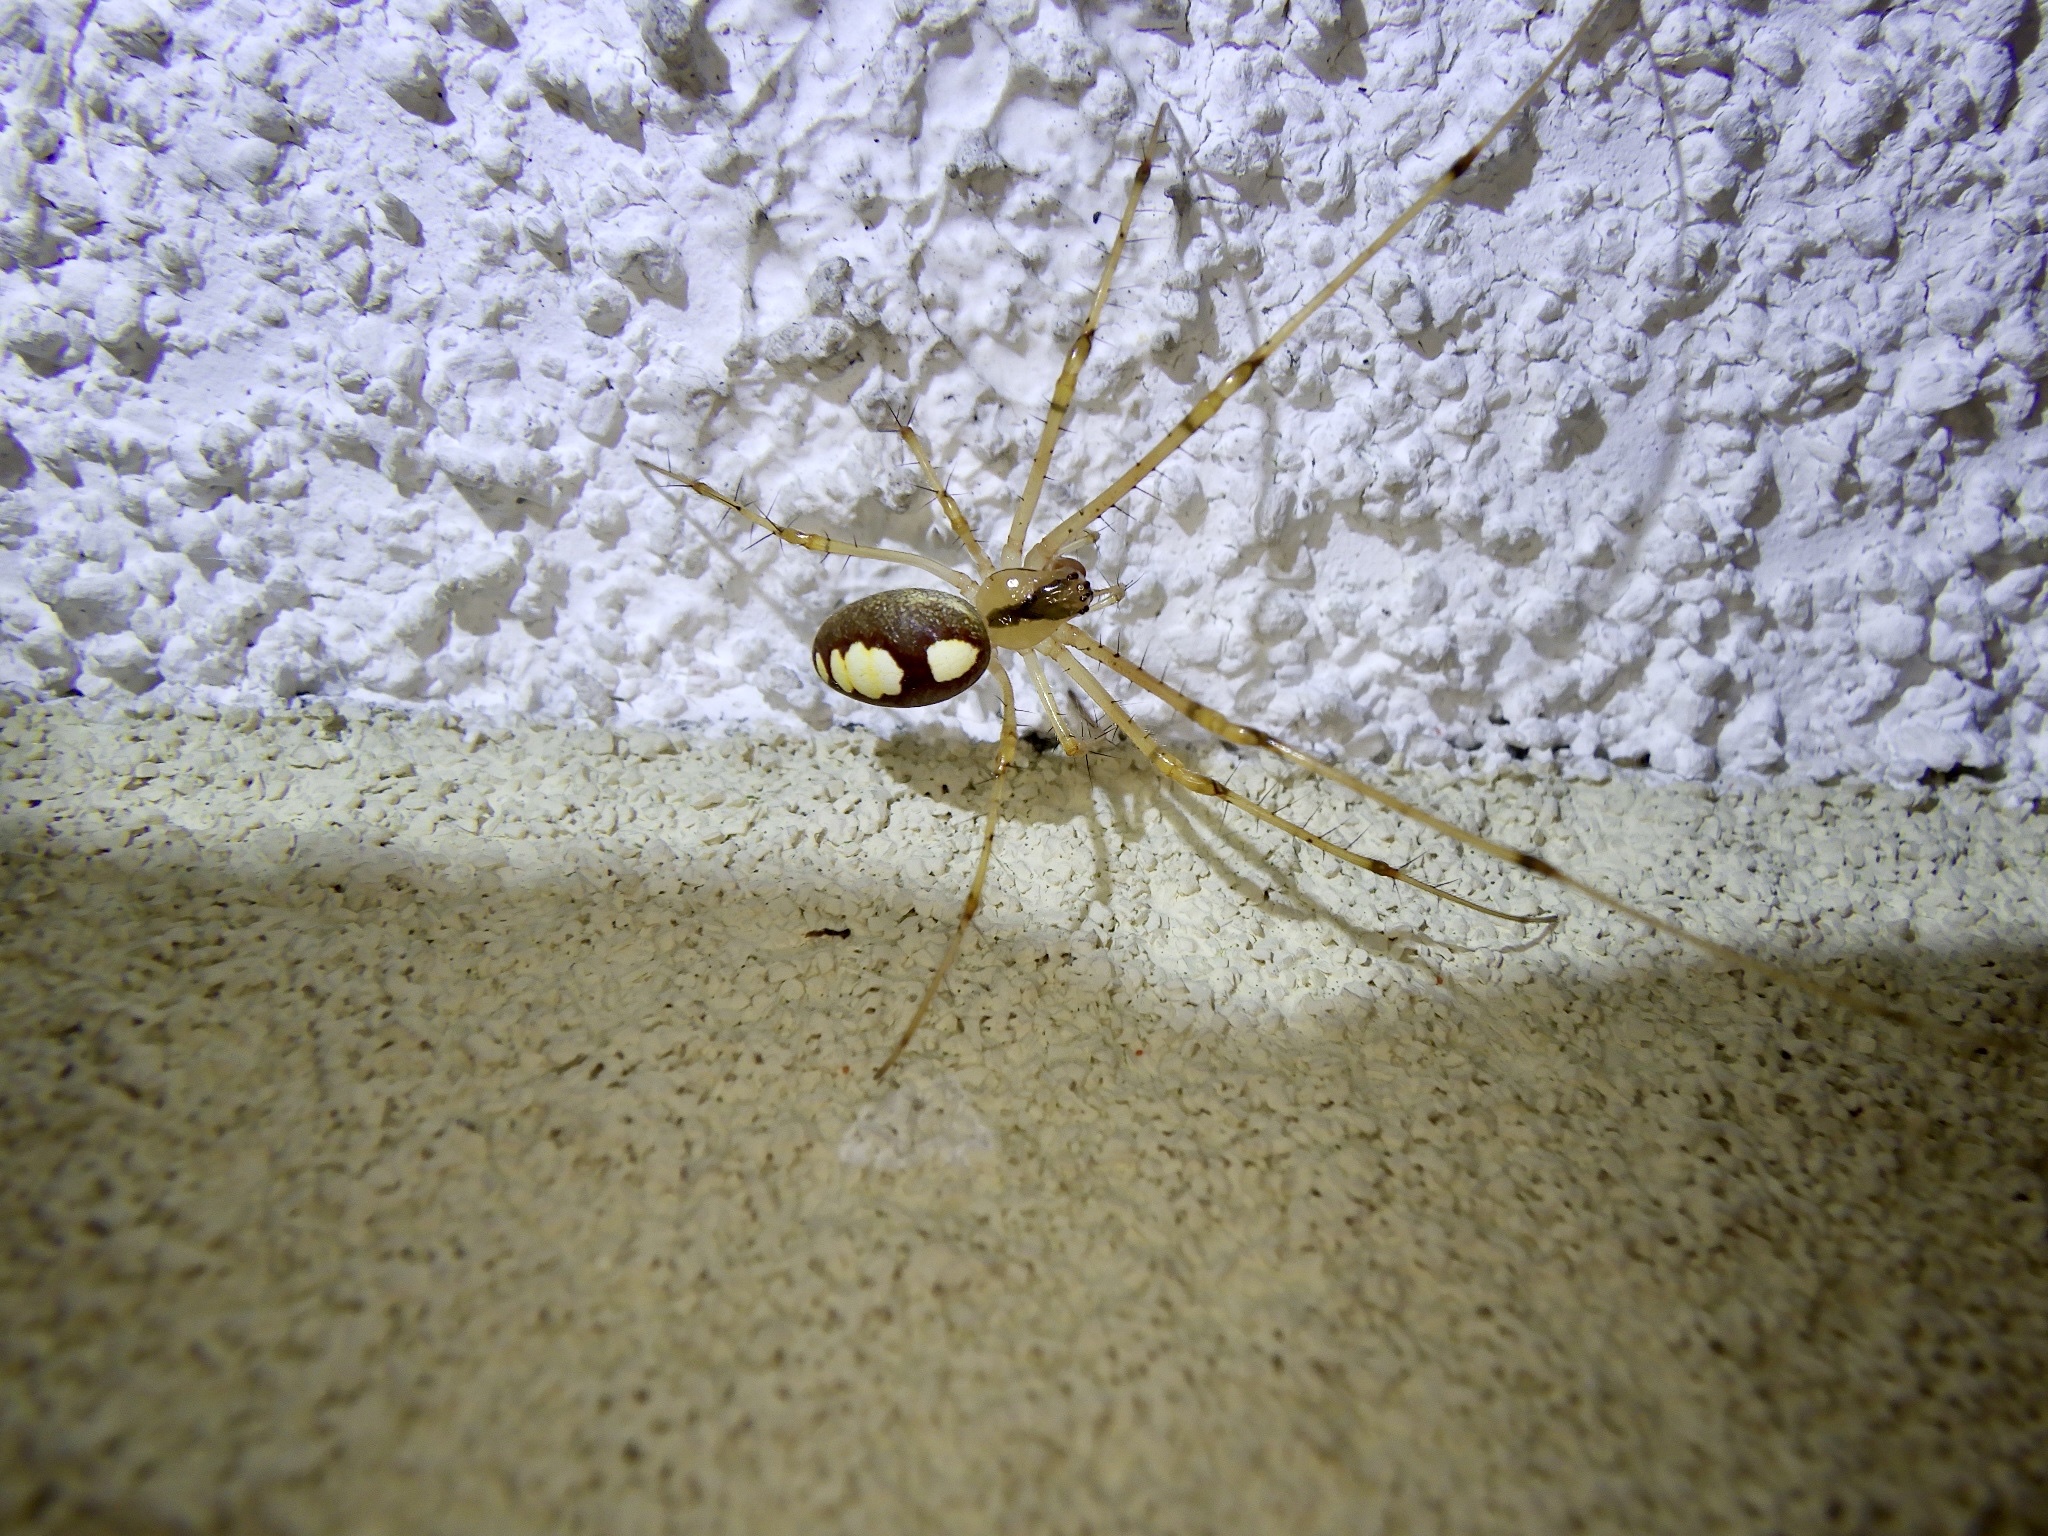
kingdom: Animalia
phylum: Arthropoda
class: Arachnida
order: Araneae
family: Tetragnathidae
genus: Metellina
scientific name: Metellina ornata
